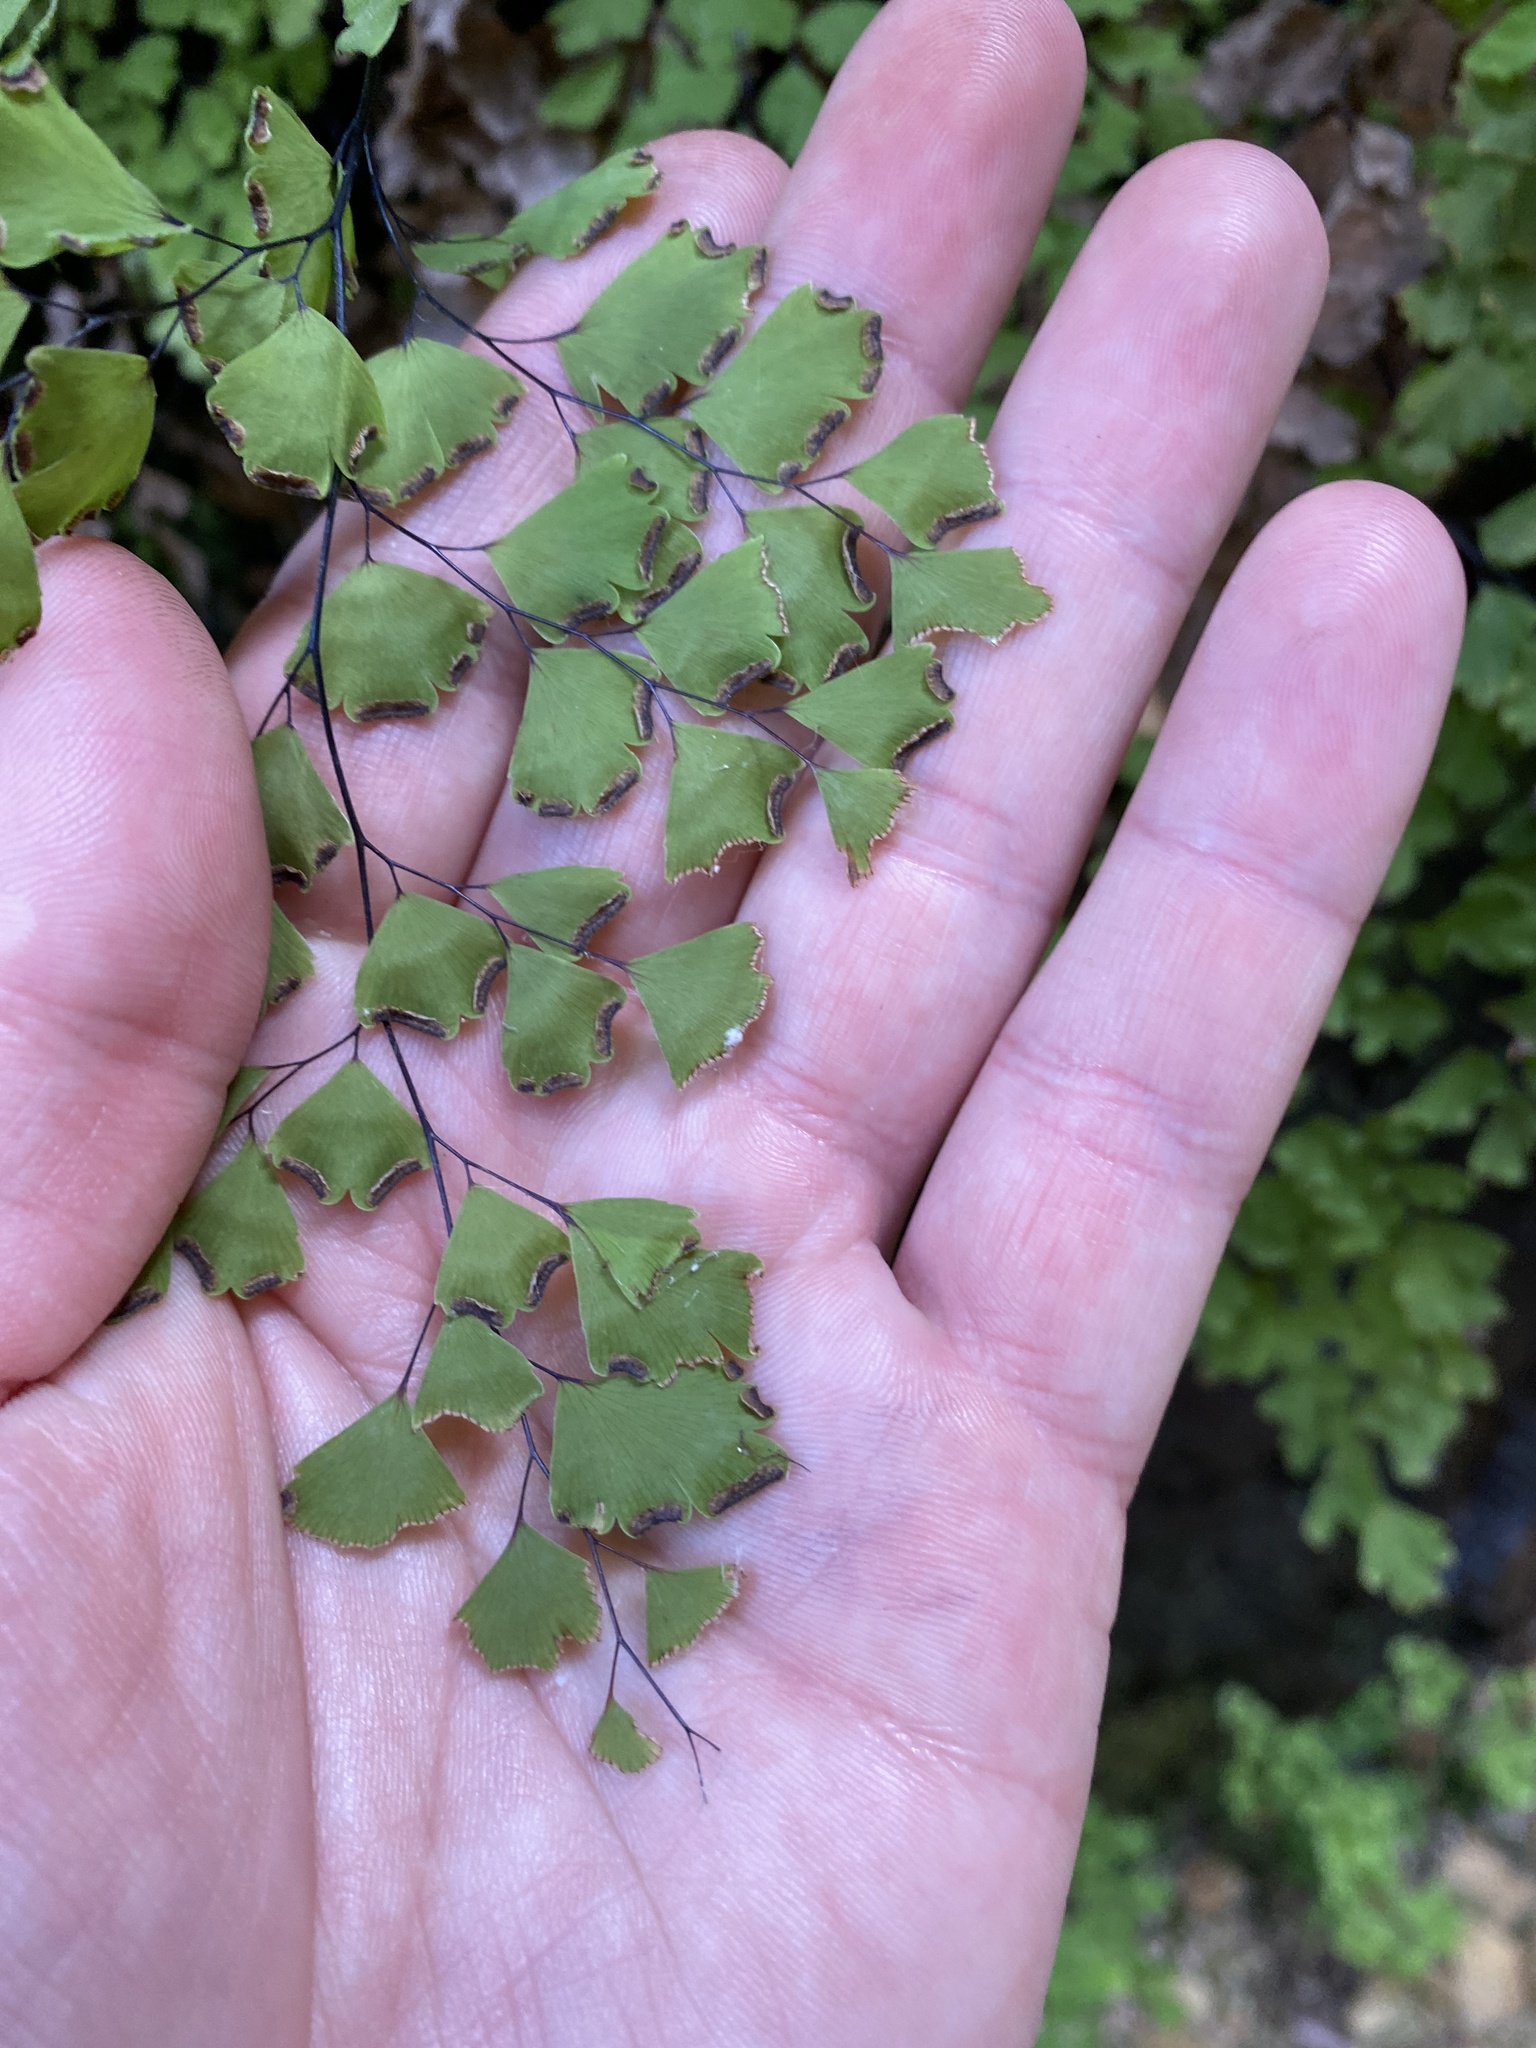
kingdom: Plantae
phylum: Tracheophyta
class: Polypodiopsida
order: Polypodiales
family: Pteridaceae
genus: Adiantum
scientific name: Adiantum capillus-veneris
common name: Maidenhair fern
